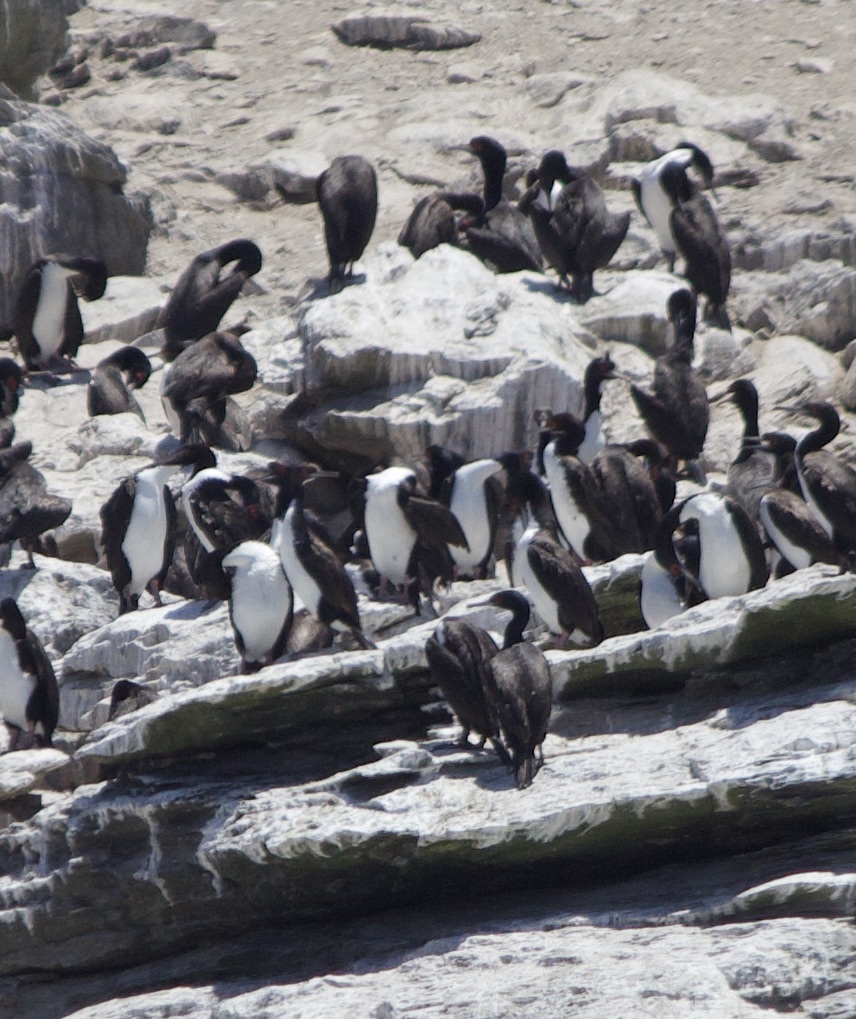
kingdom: Animalia
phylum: Chordata
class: Aves
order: Suliformes
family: Phalacrocoracidae
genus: Leucocarbo
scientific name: Leucocarbo bougainvillii
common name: Guanay cormorant
